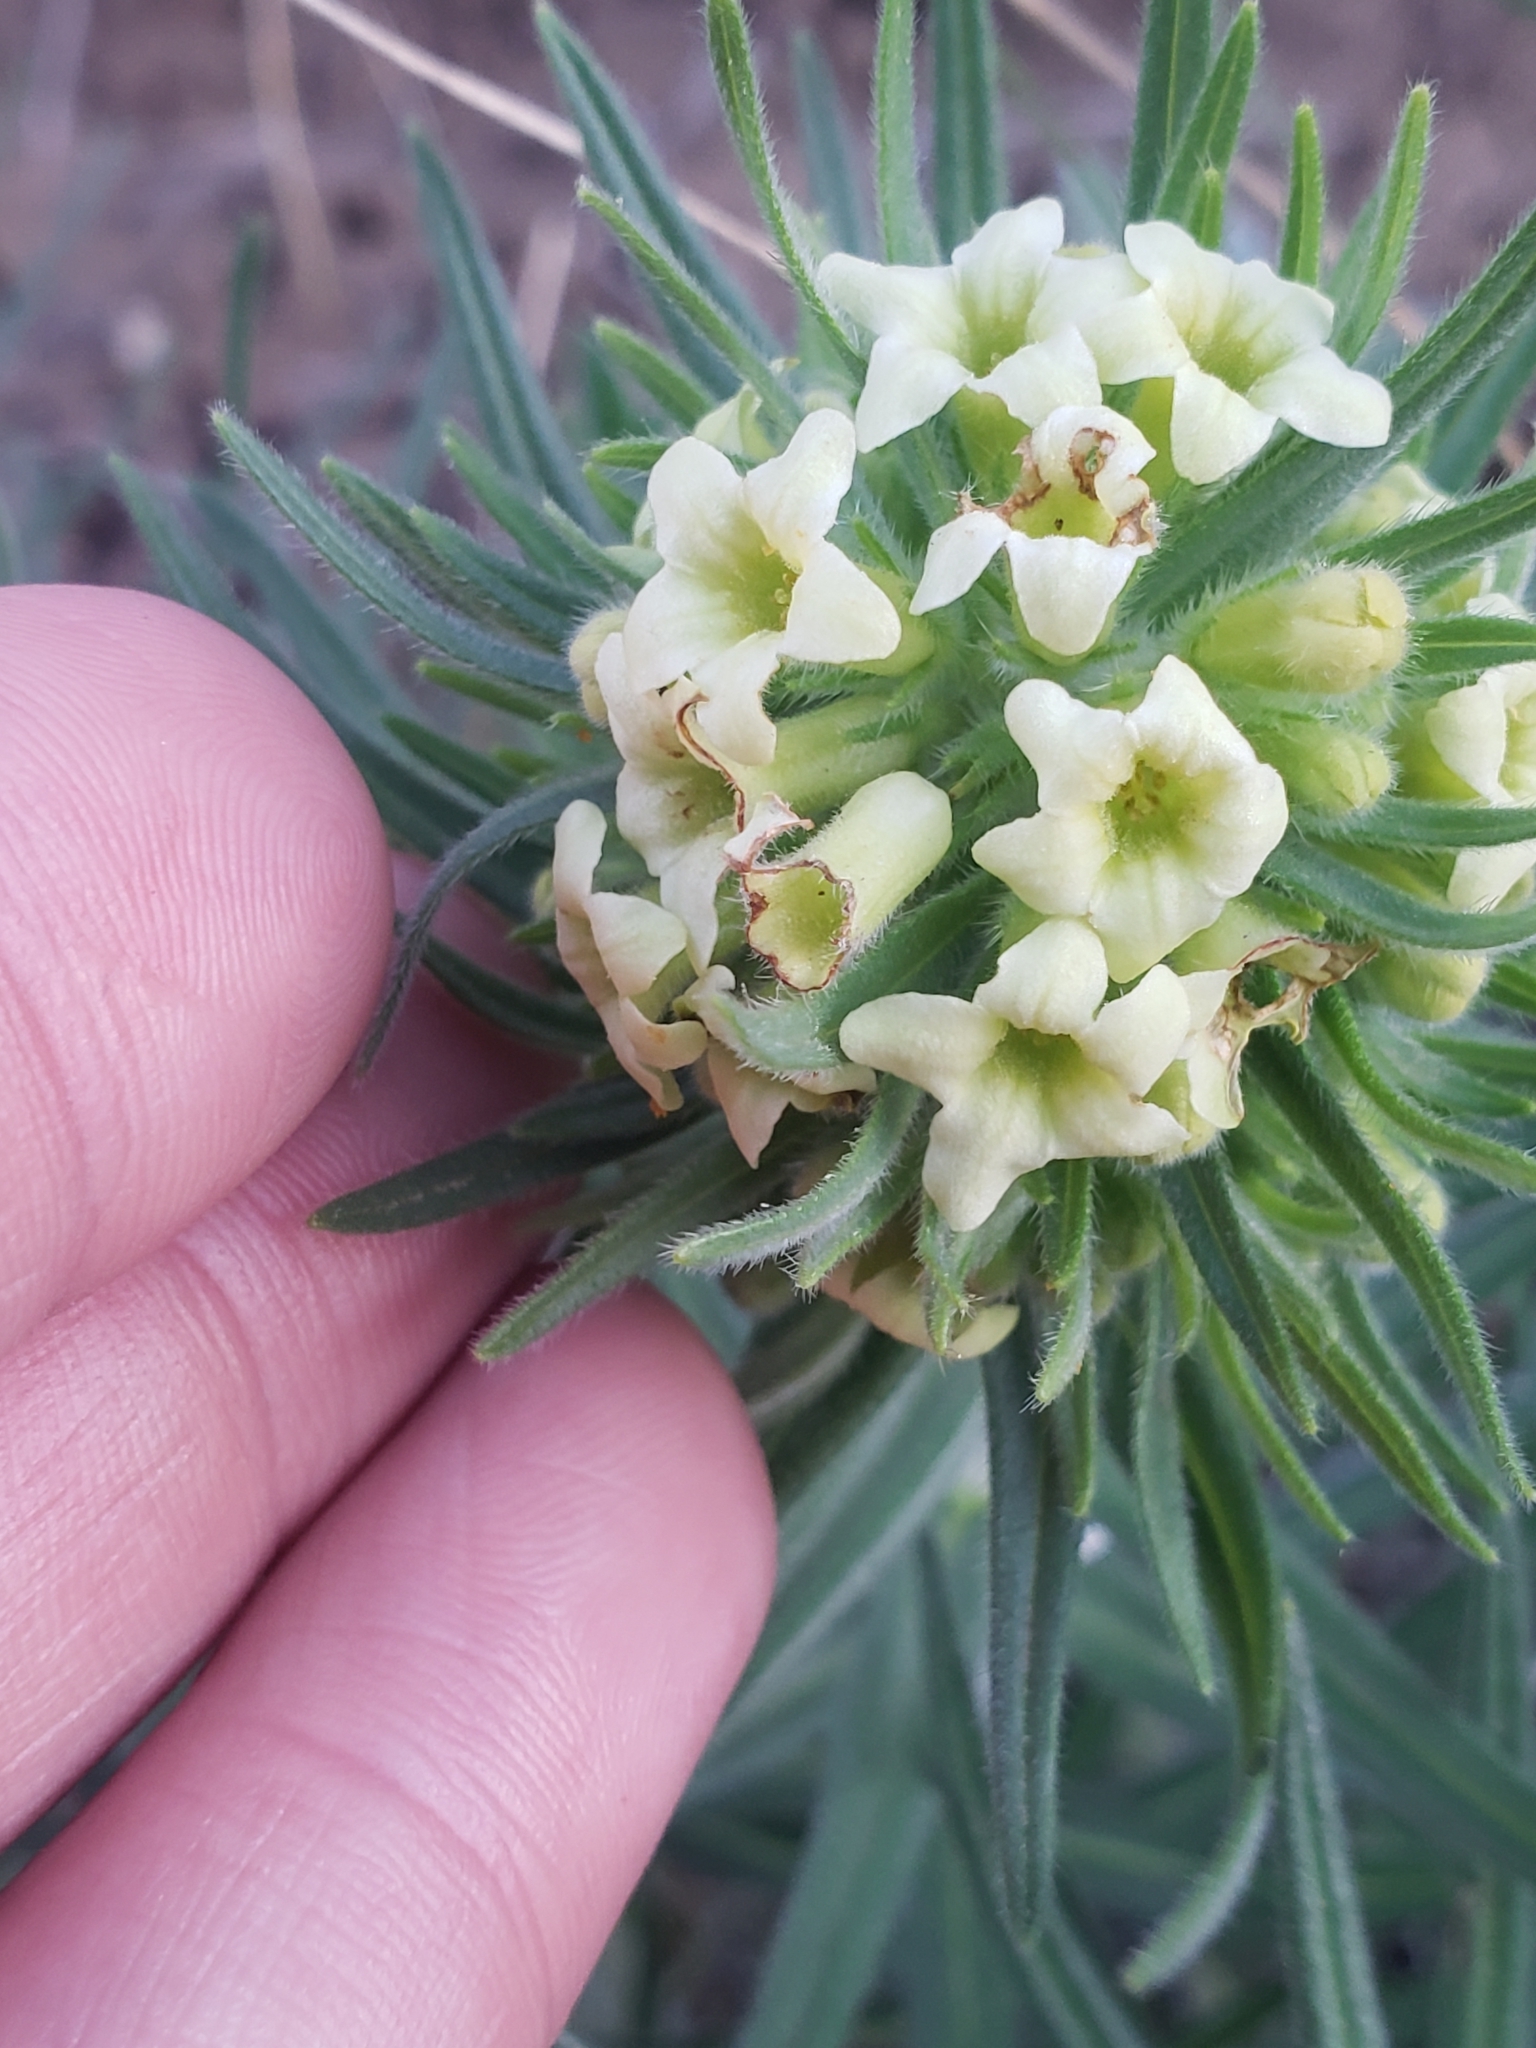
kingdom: Plantae
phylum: Tracheophyta
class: Magnoliopsida
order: Boraginales
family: Boraginaceae
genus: Lithospermum
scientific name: Lithospermum ruderale
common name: Western gromwell
